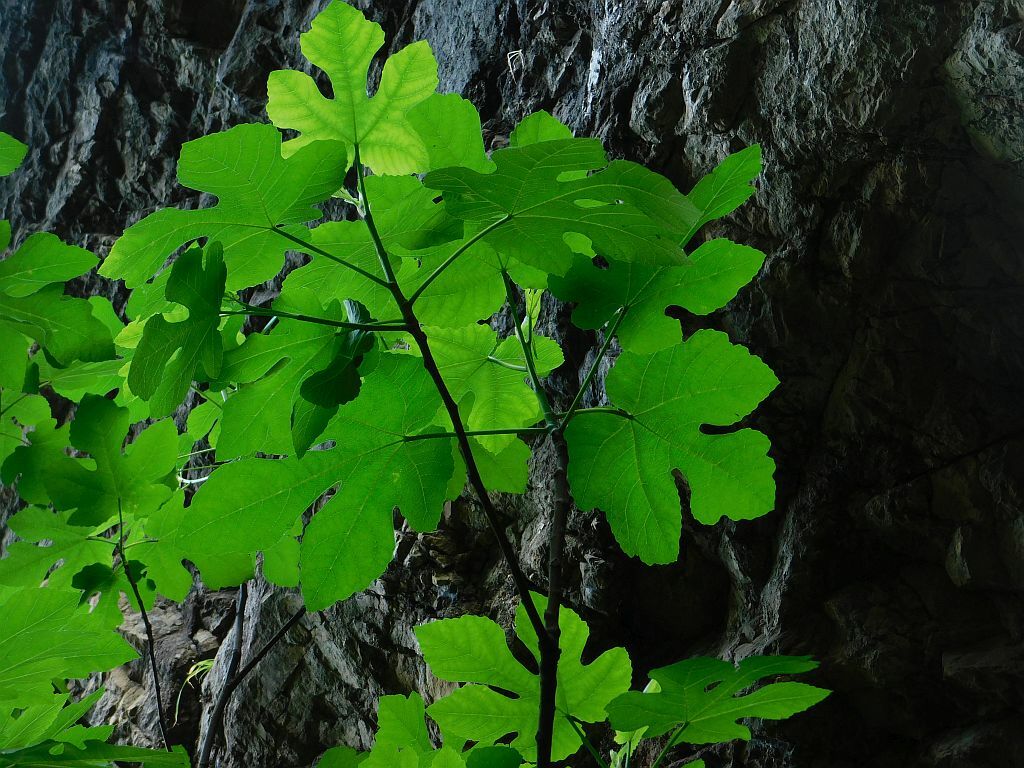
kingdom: Plantae
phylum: Tracheophyta
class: Magnoliopsida
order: Rosales
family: Moraceae
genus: Ficus
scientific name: Ficus carica
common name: Fig
